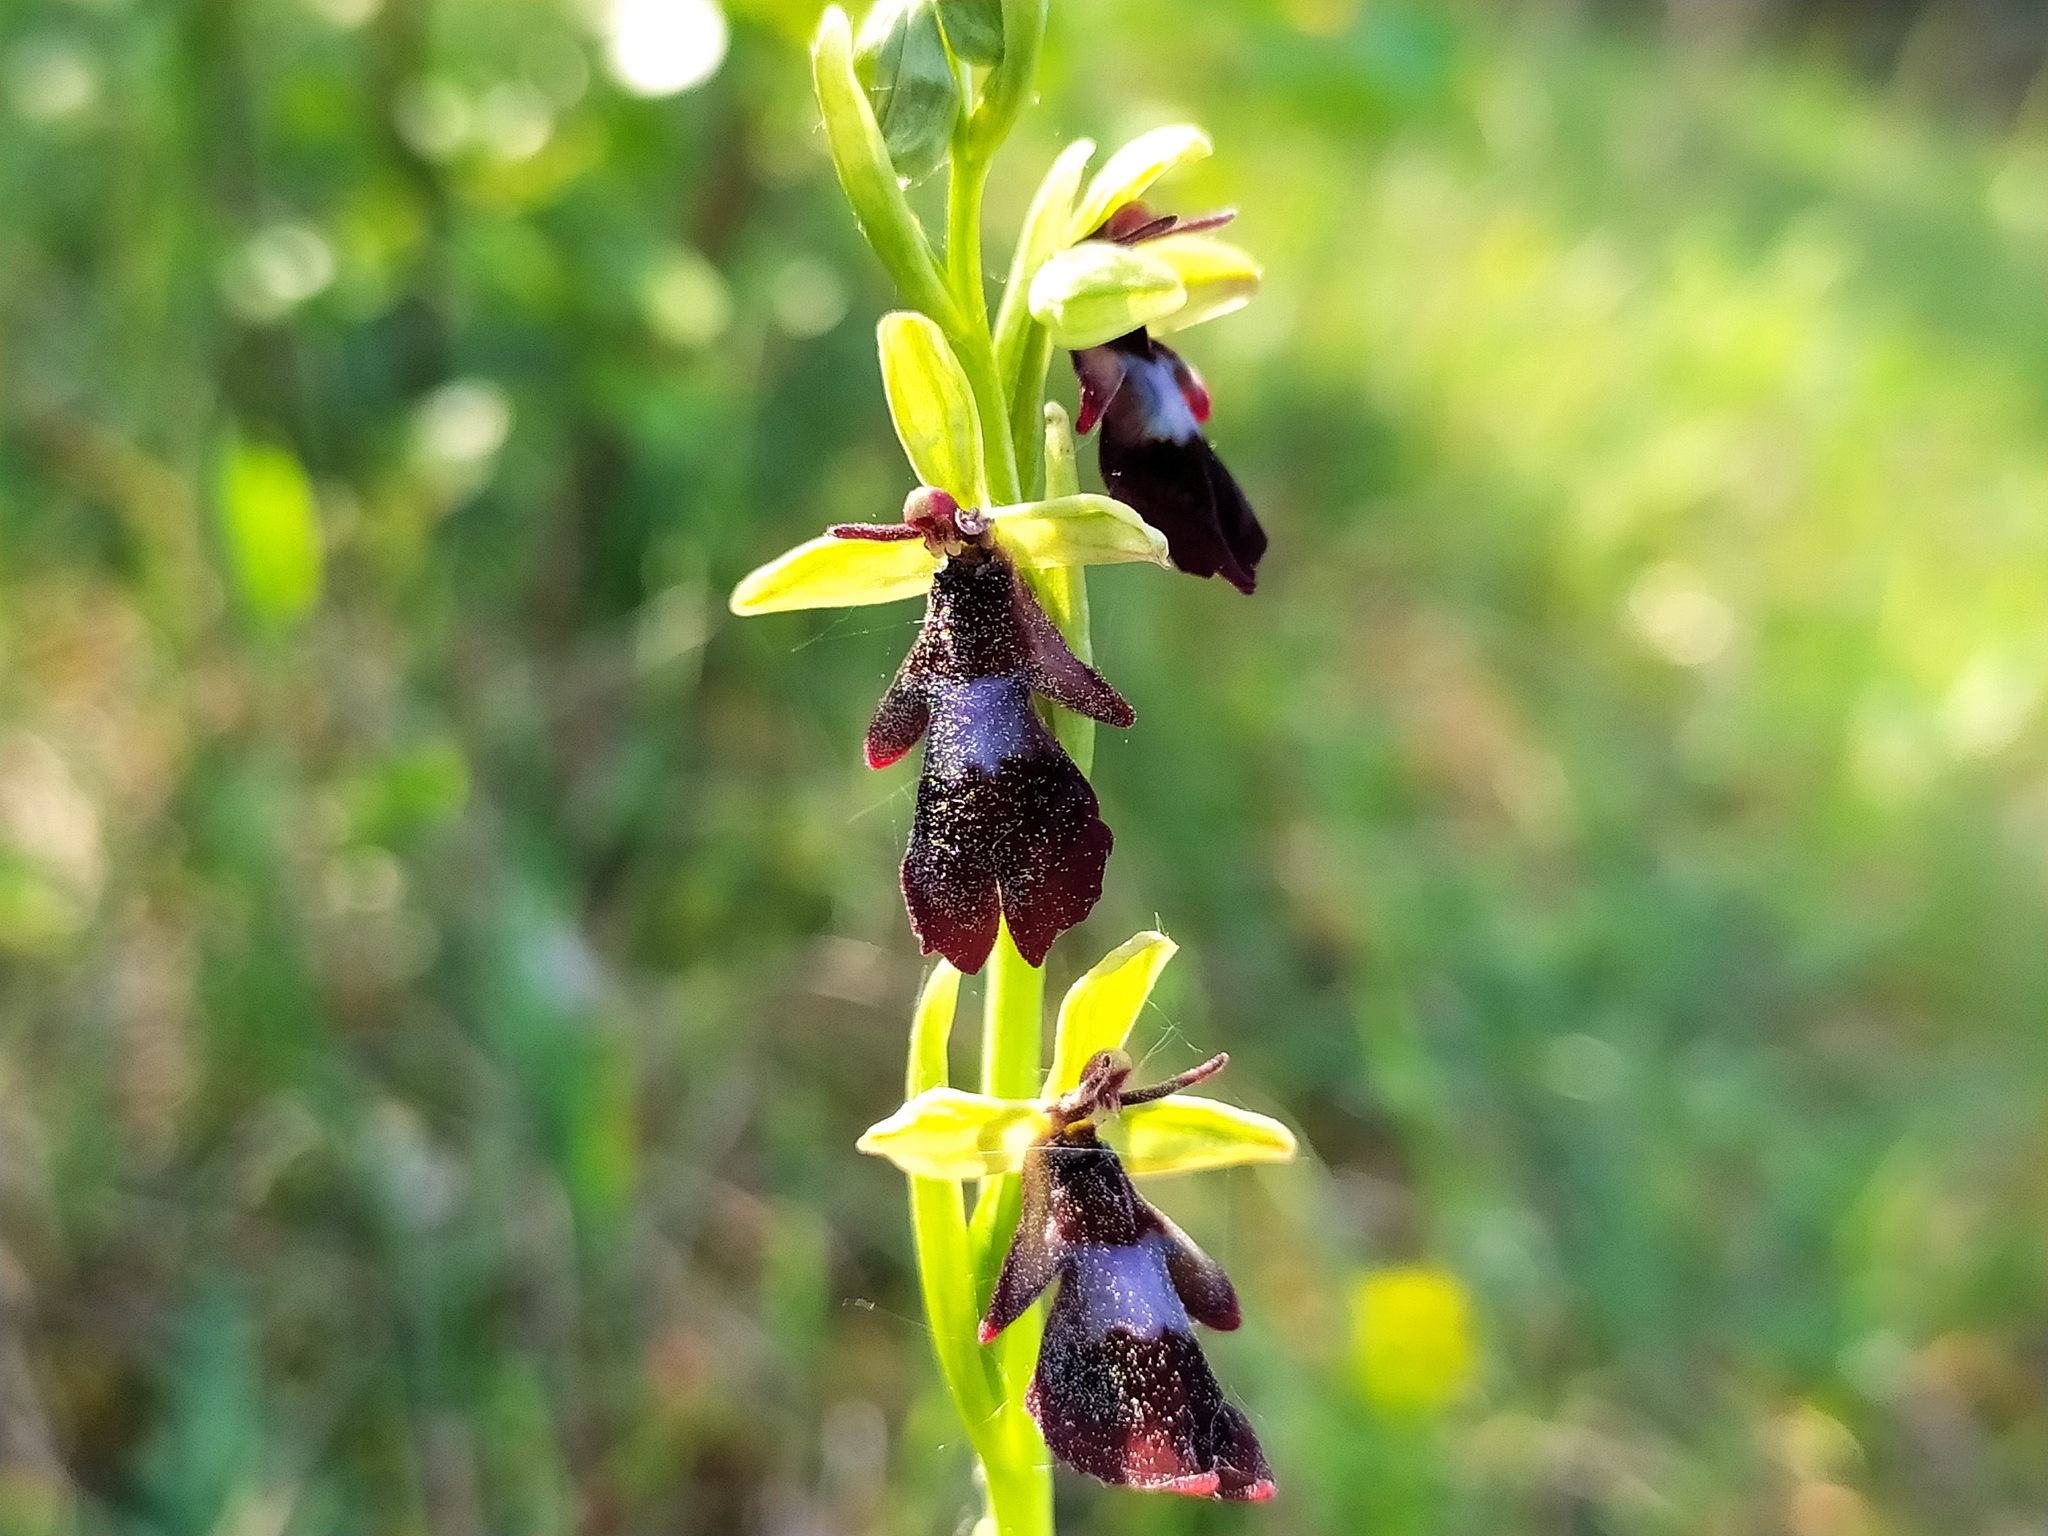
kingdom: Plantae
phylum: Tracheophyta
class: Liliopsida
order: Asparagales
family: Orchidaceae
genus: Ophrys
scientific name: Ophrys insectifera
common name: Fly orchid
